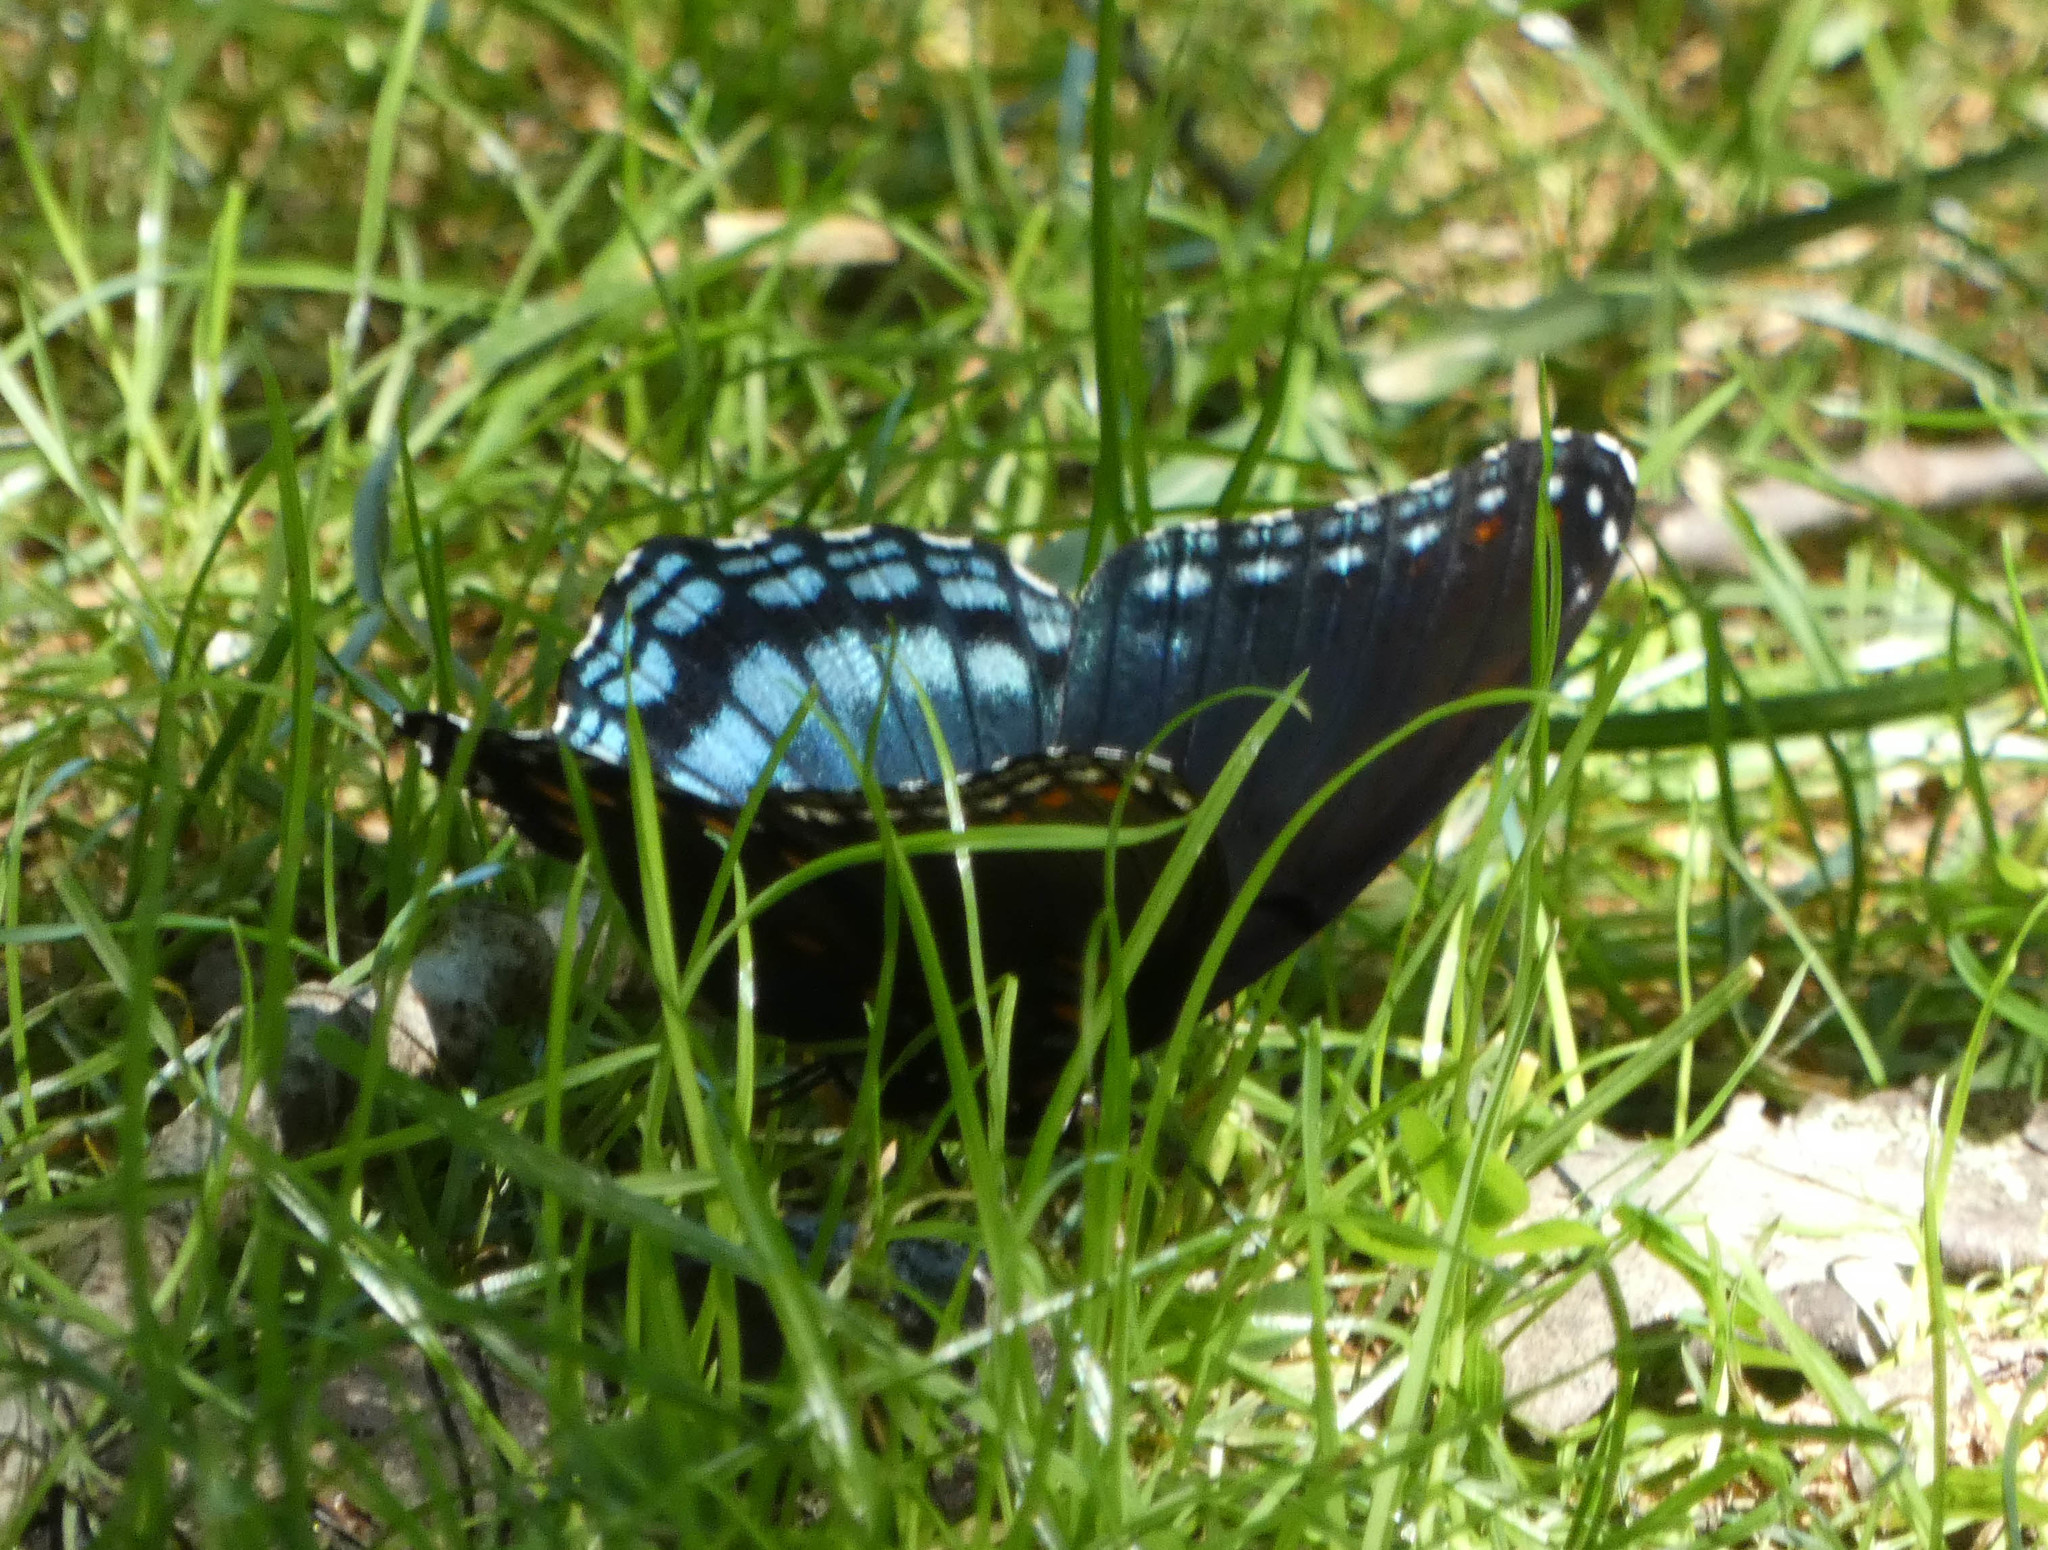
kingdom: Animalia
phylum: Arthropoda
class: Insecta
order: Lepidoptera
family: Nymphalidae
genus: Limenitis
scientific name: Limenitis astyanax
